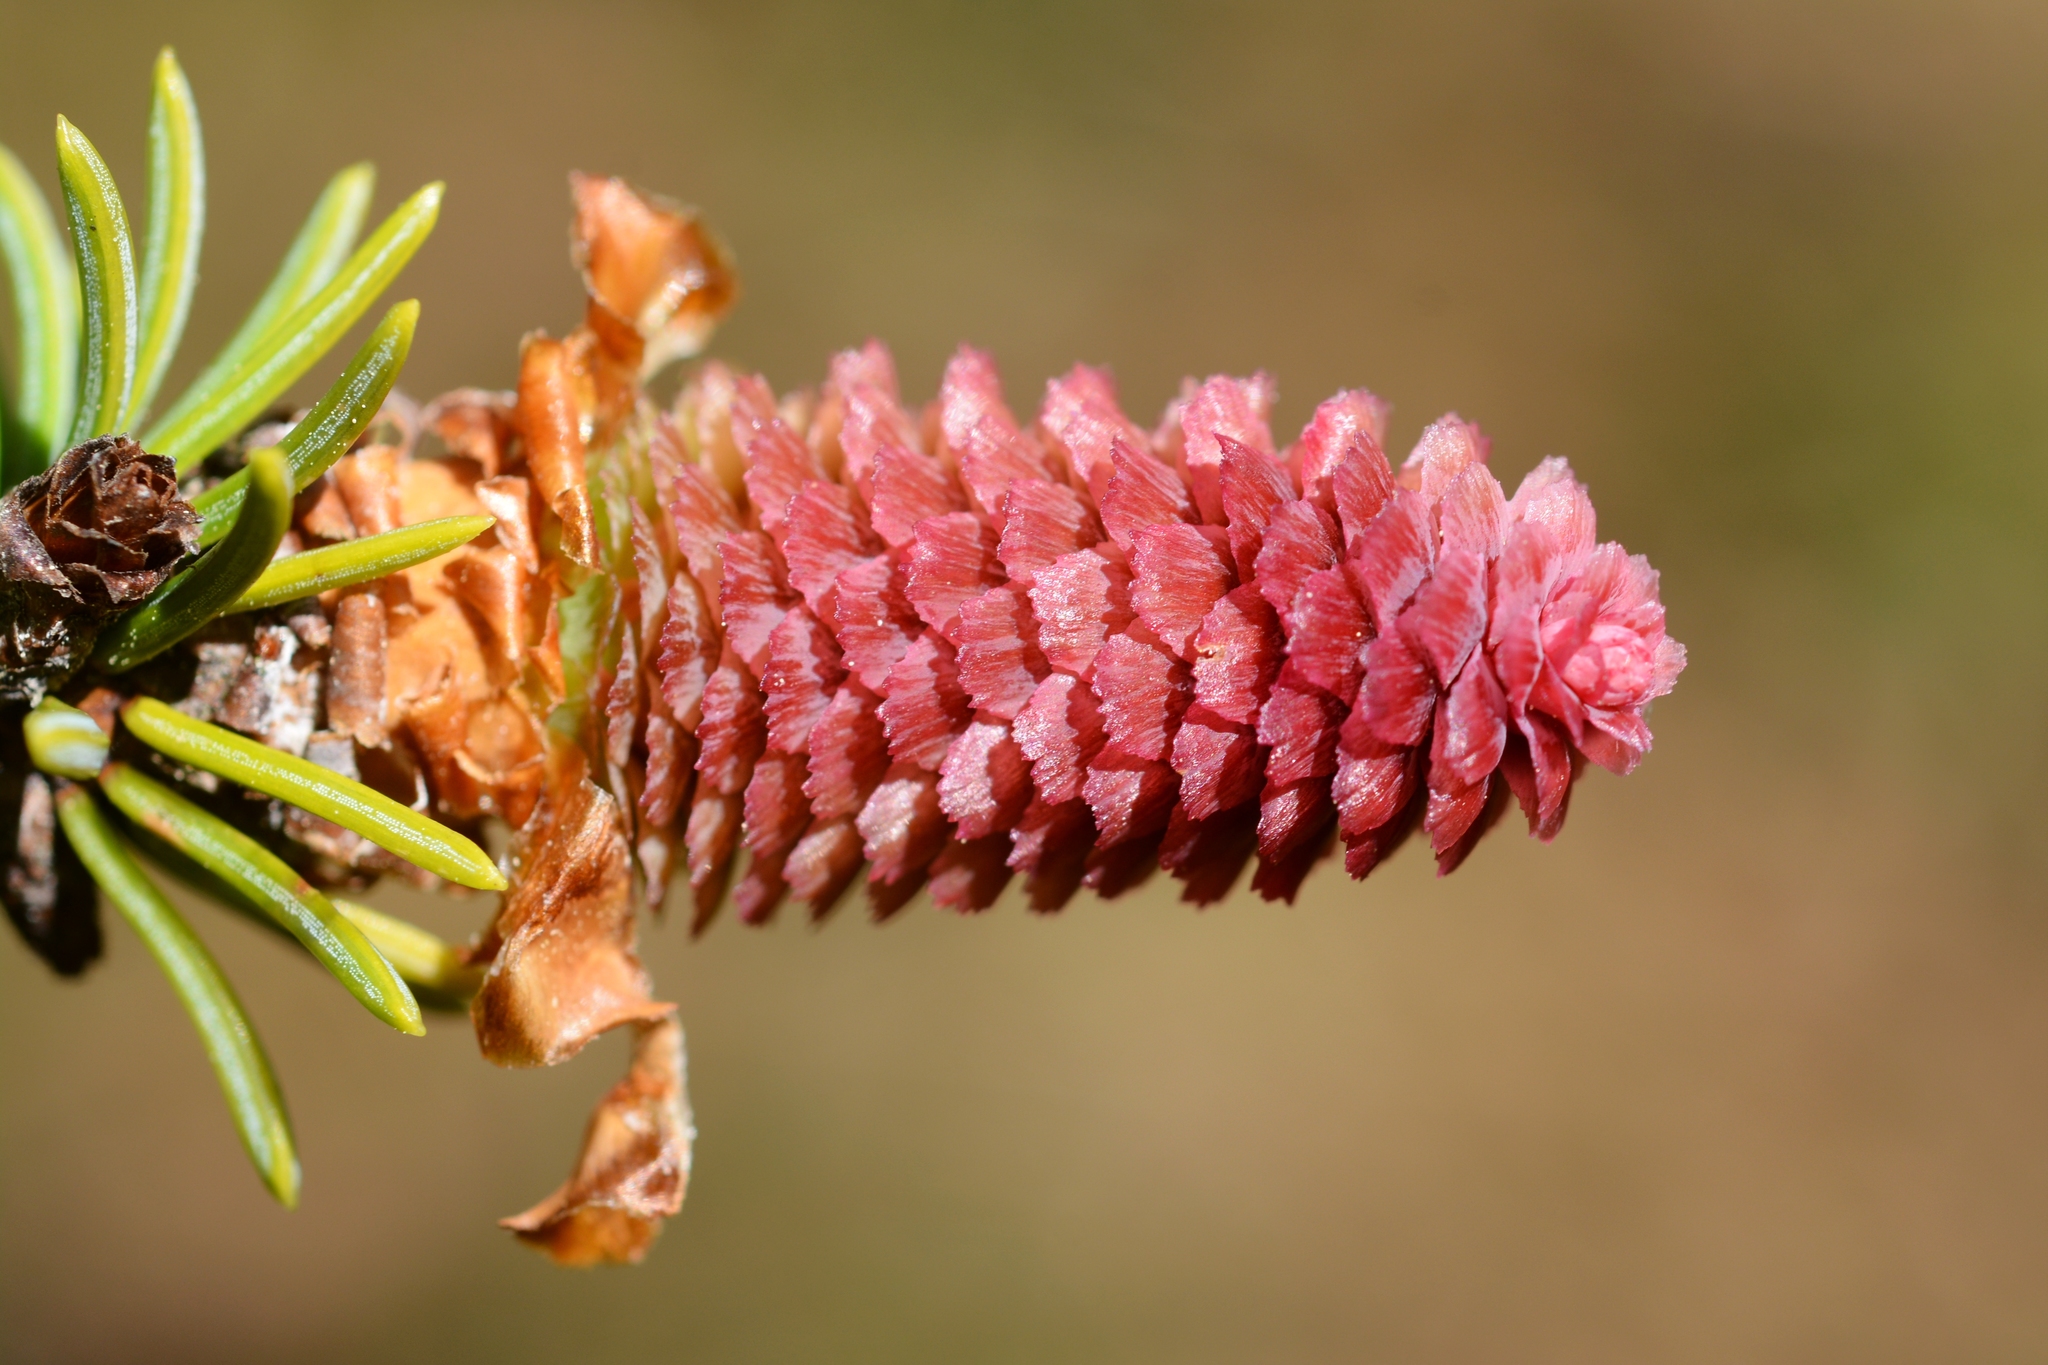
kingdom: Plantae
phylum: Tracheophyta
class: Pinopsida
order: Pinales
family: Pinaceae
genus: Picea
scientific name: Picea abies
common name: Norway spruce
